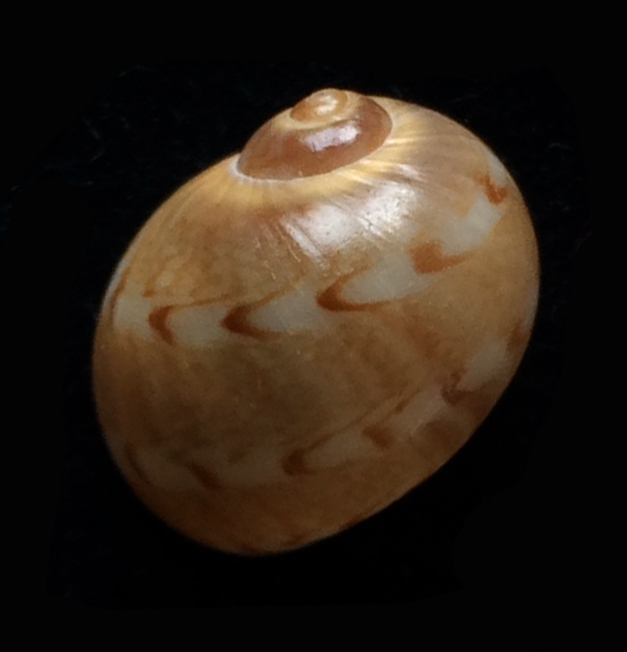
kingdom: Animalia
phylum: Mollusca
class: Gastropoda
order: Littorinimorpha
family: Naticidae
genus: Notocochlis
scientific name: Notocochlis dillwynii
